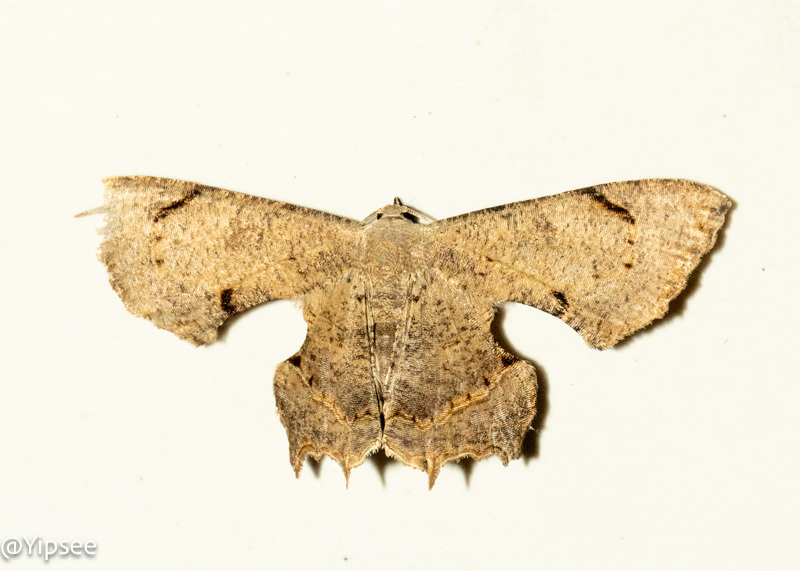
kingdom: Animalia
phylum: Arthropoda
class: Insecta
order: Lepidoptera
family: Uraniidae
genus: Dysaethria
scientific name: Dysaethria quadricaudata
